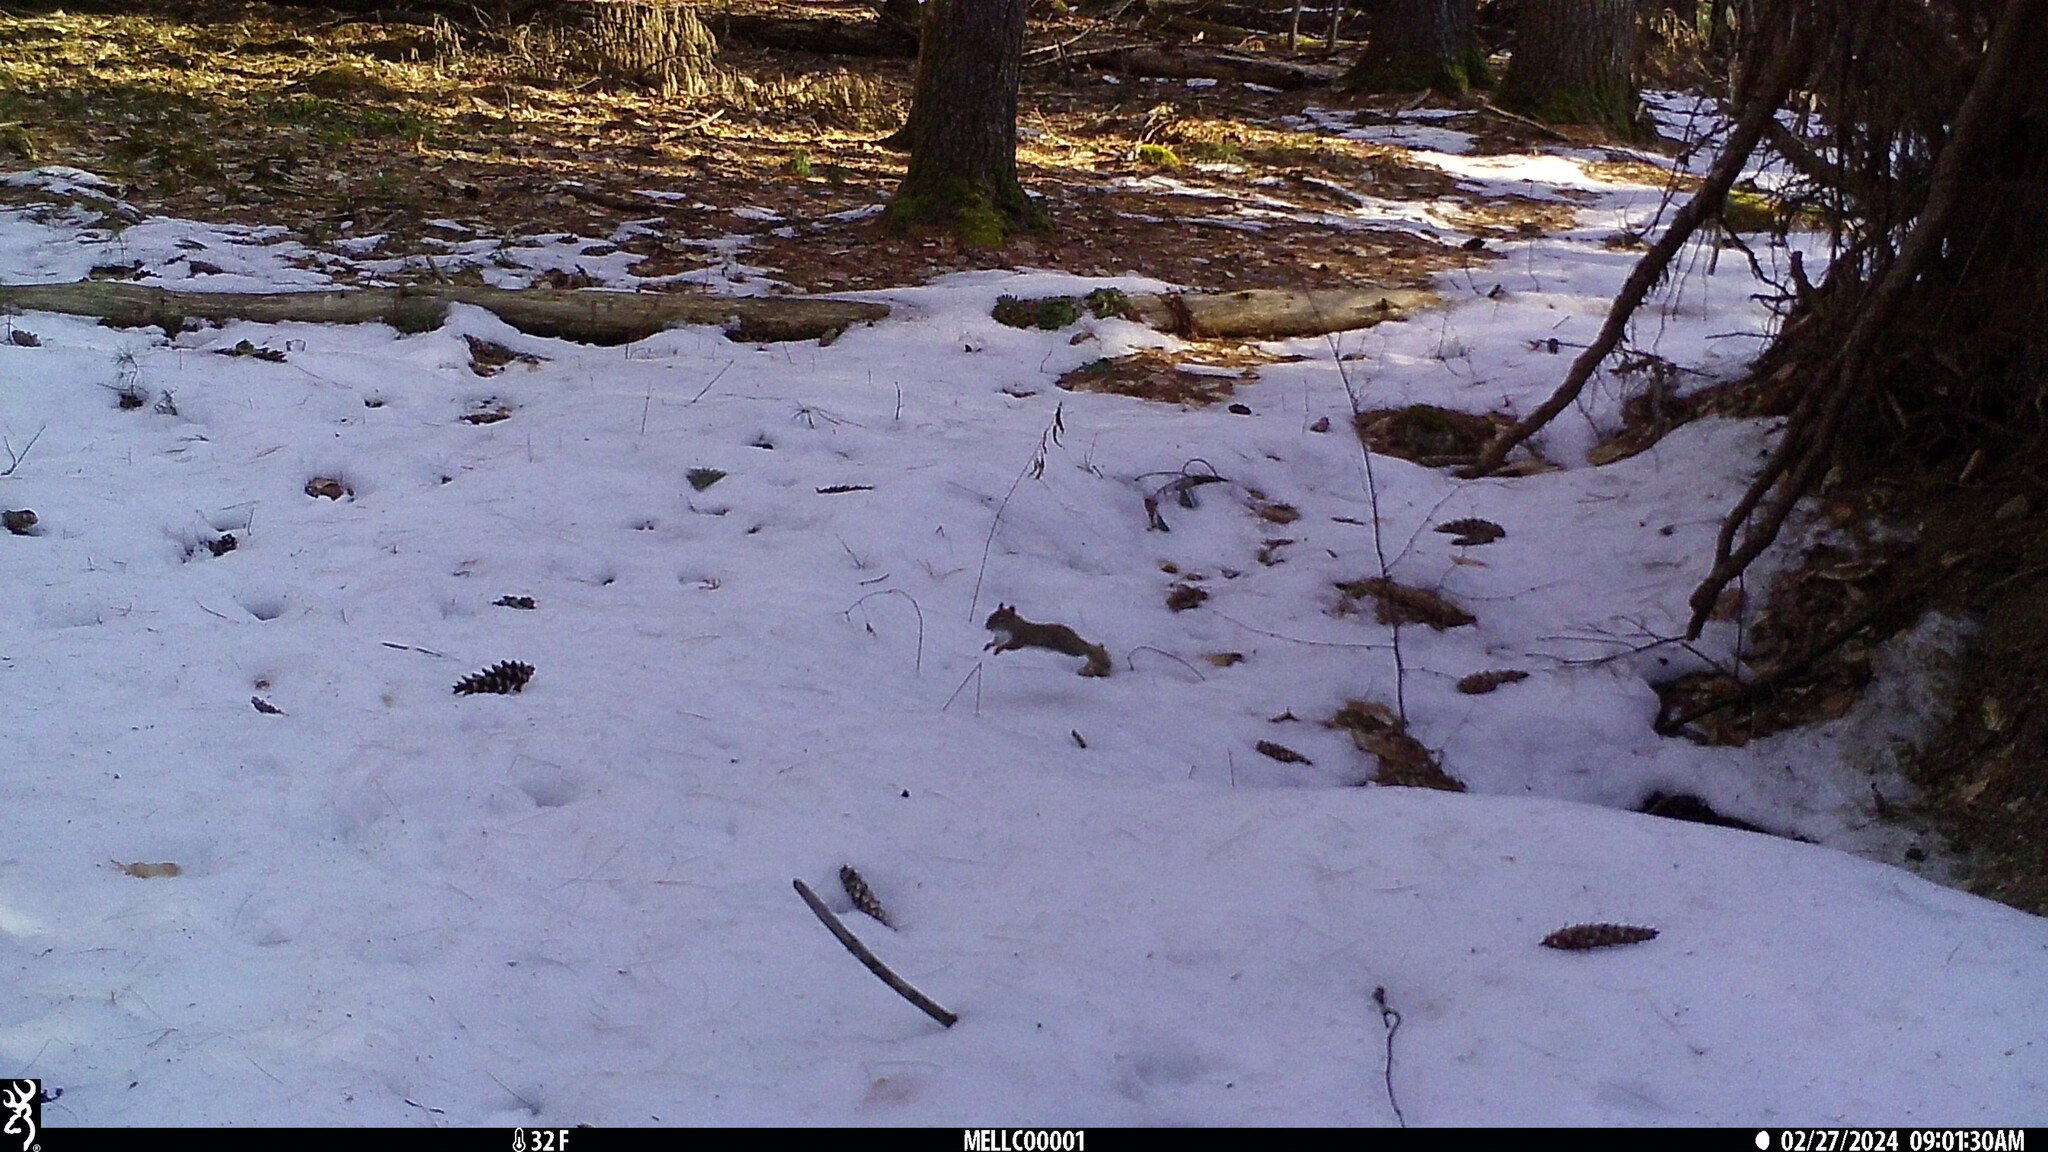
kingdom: Animalia
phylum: Chordata
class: Mammalia
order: Rodentia
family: Sciuridae
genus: Tamiasciurus
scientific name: Tamiasciurus hudsonicus
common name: Red squirrel
